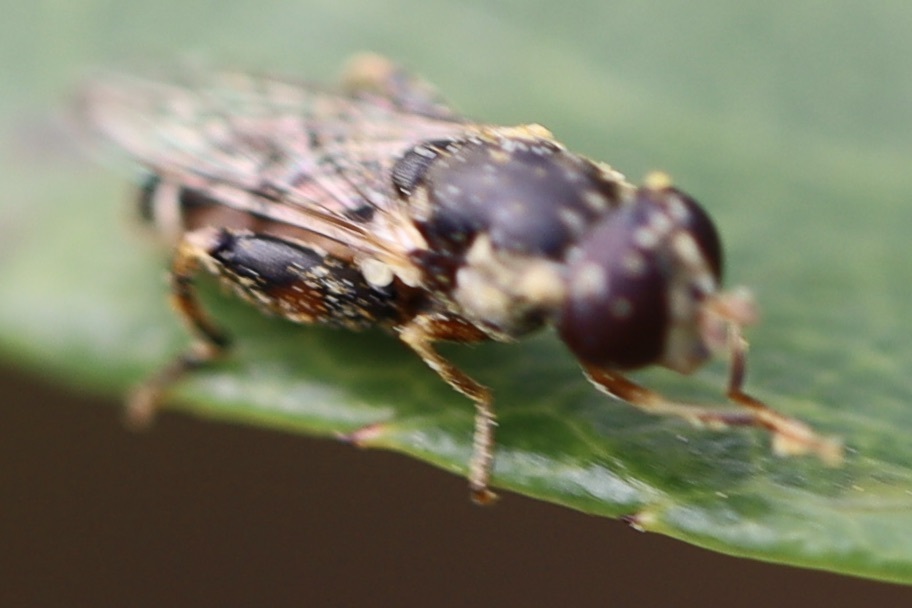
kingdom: Animalia
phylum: Arthropoda
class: Insecta
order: Diptera
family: Syrphidae
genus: Syritta
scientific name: Syritta pipiens
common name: Hover fly
